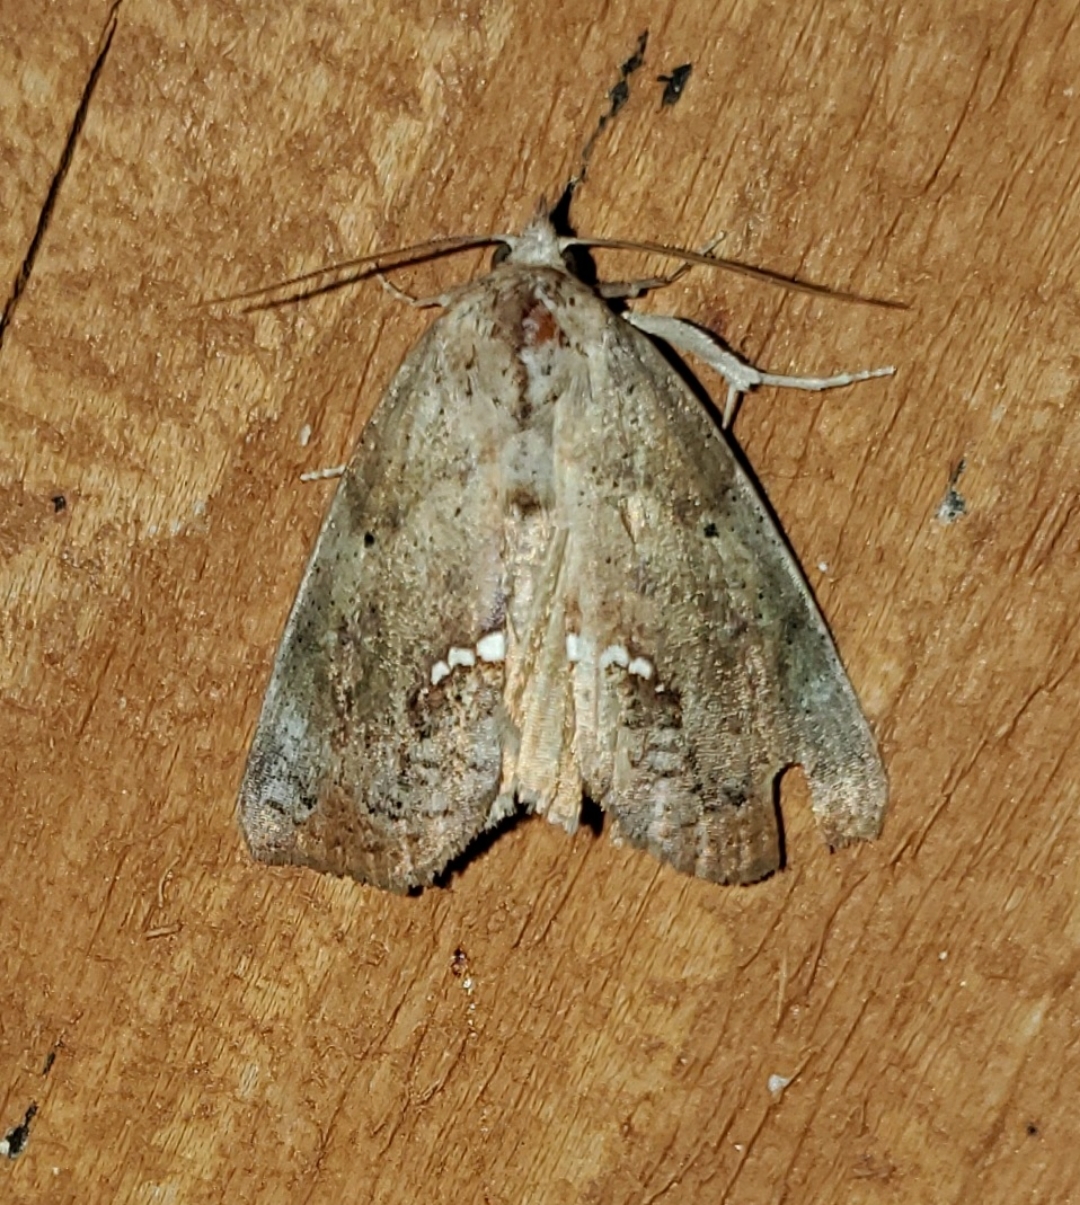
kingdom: Animalia
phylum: Arthropoda
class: Insecta
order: Lepidoptera
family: Erebidae
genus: Hypsoropha
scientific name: Hypsoropha hormos
